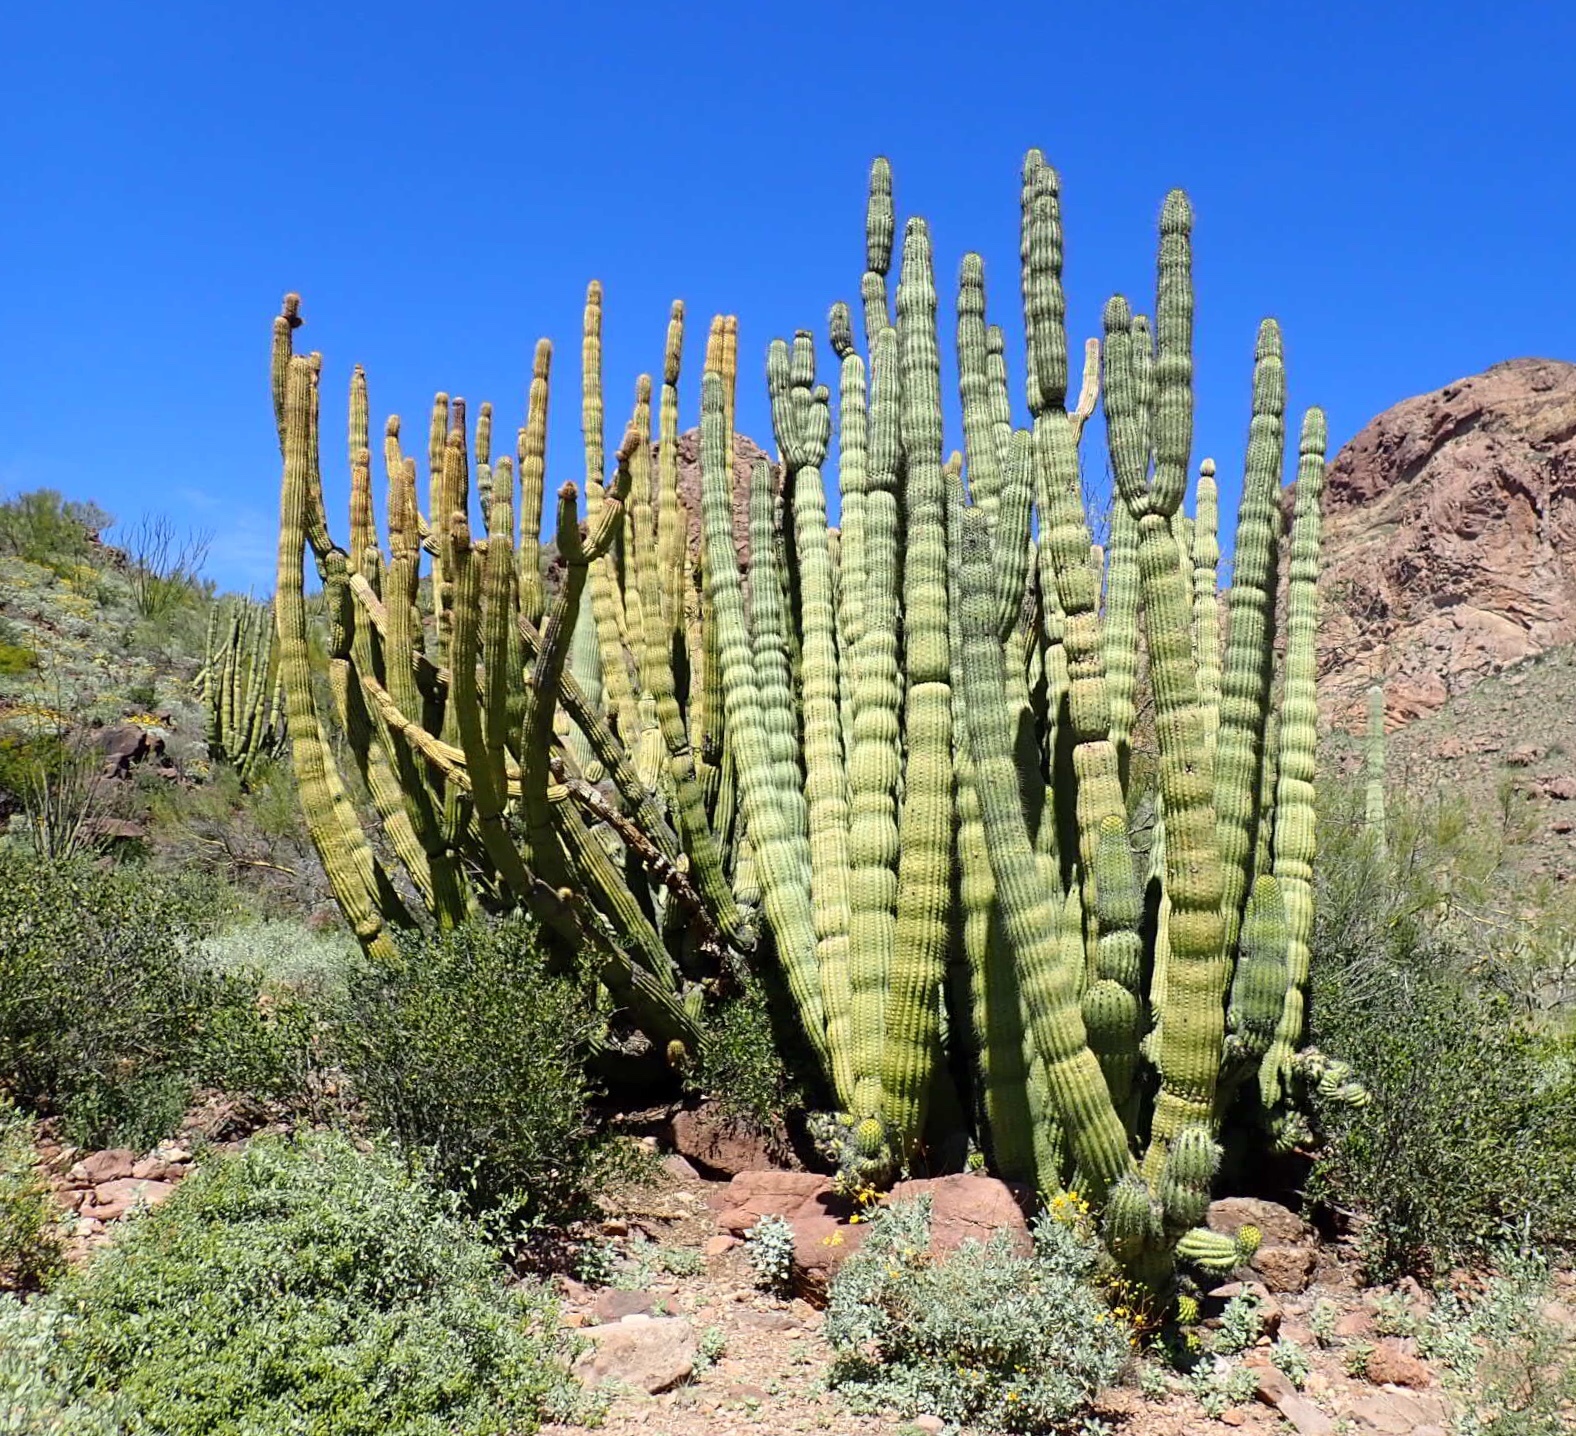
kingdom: Plantae
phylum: Tracheophyta
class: Magnoliopsida
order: Caryophyllales
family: Cactaceae
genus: Stenocereus
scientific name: Stenocereus thurberi
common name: Organ pipe cactus
